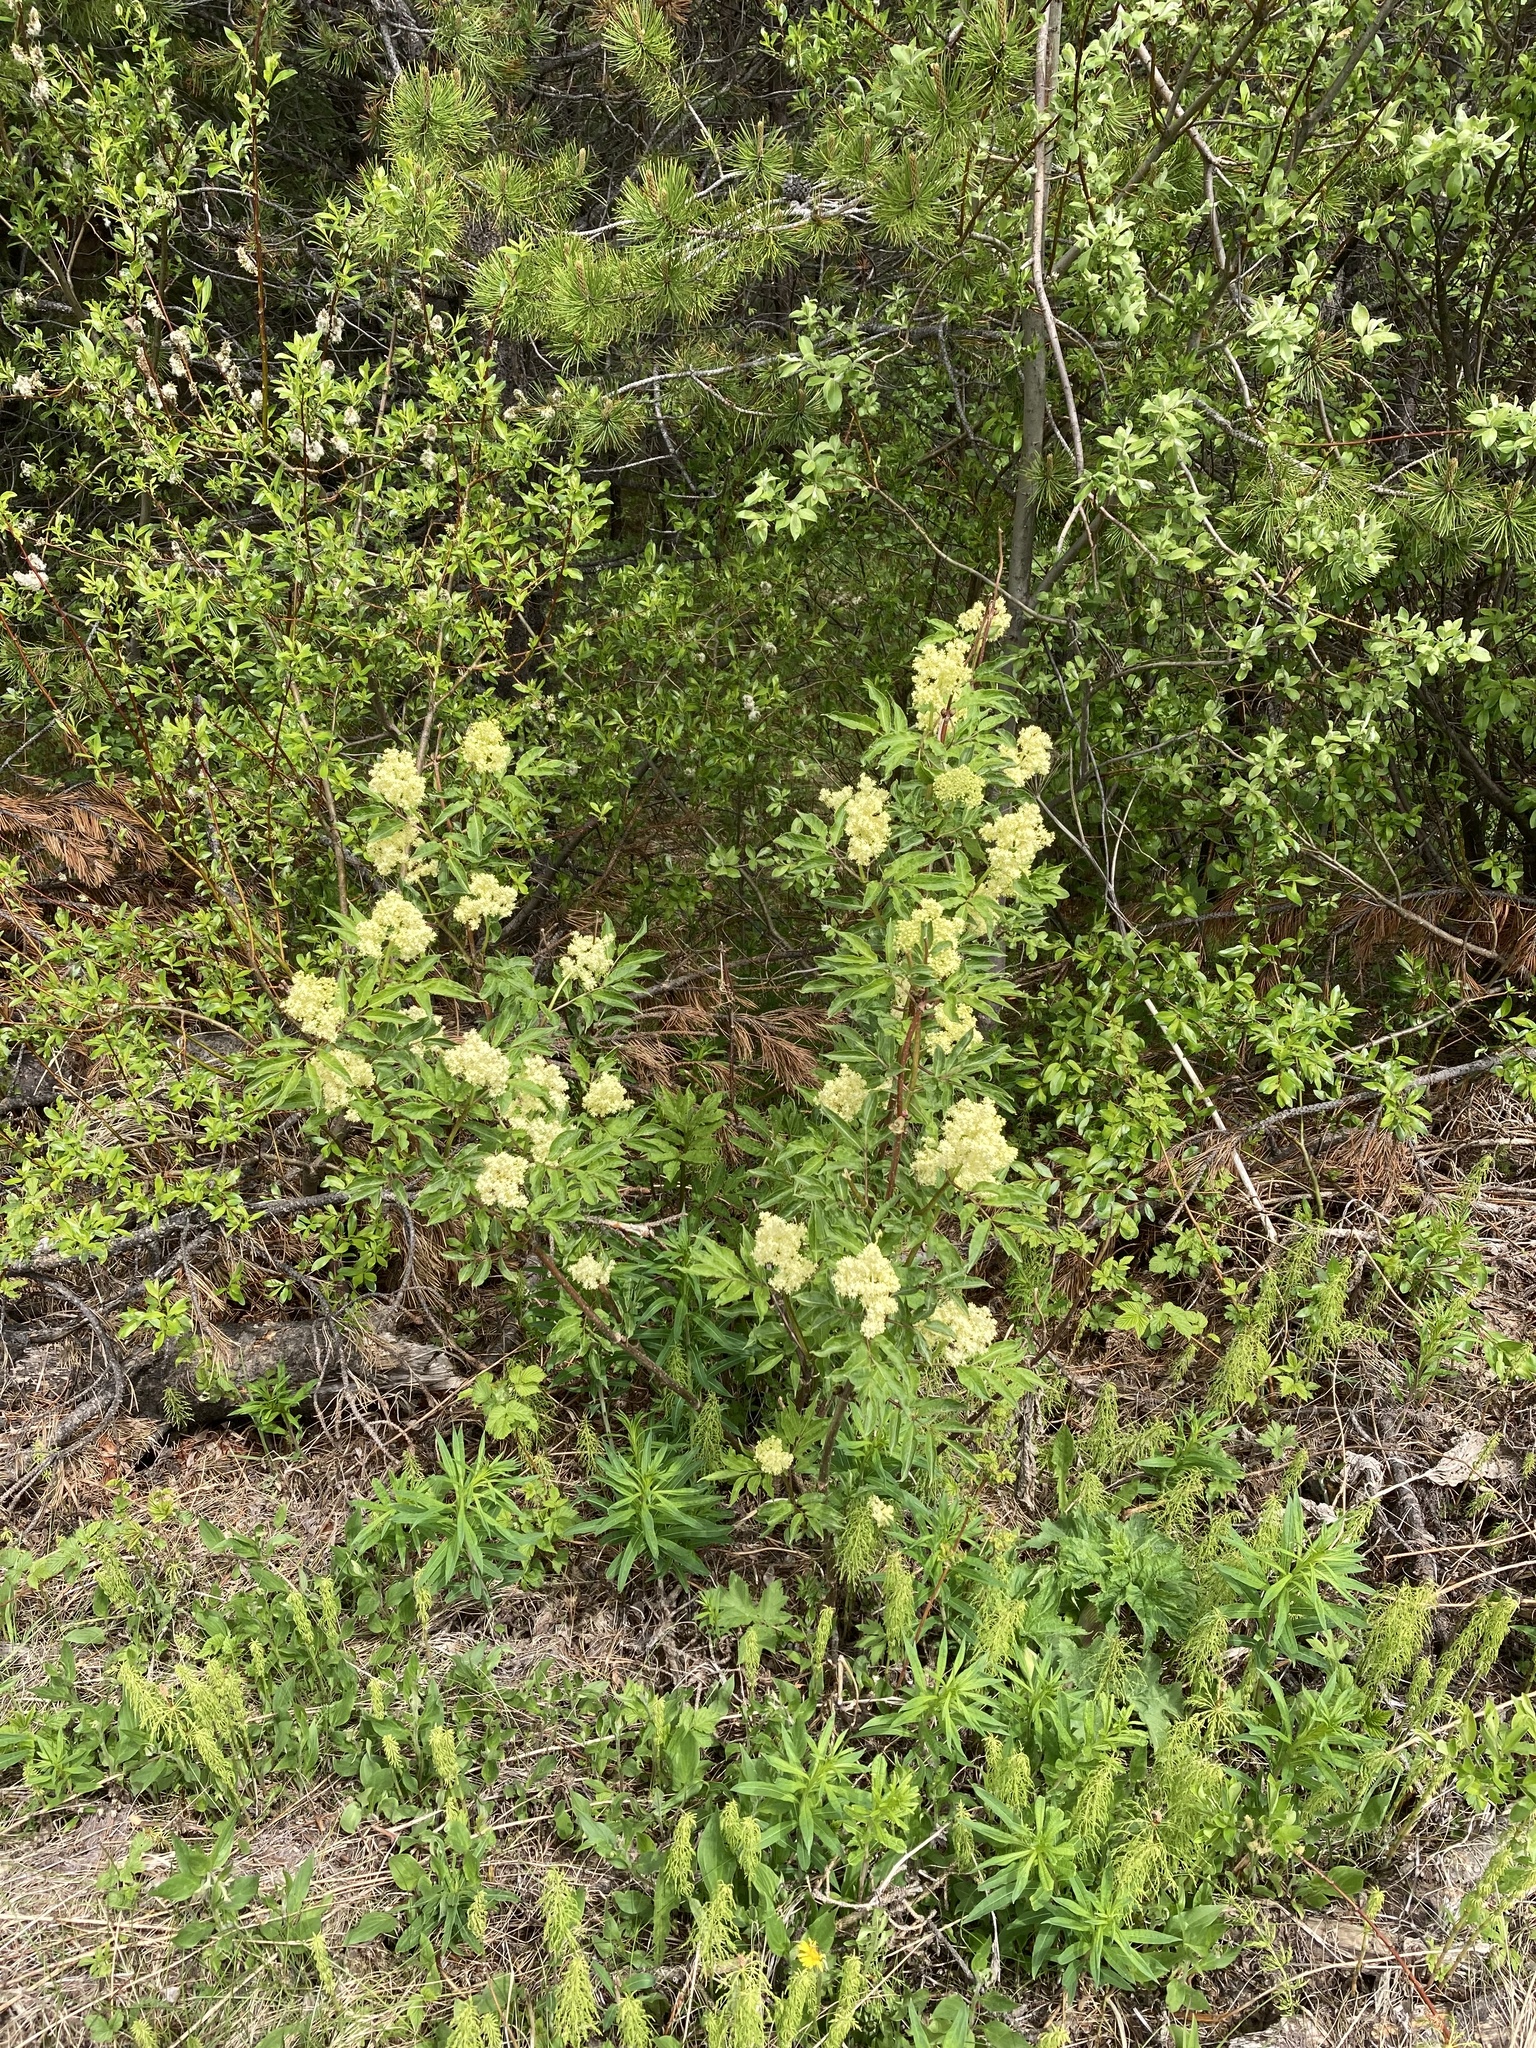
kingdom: Plantae
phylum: Tracheophyta
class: Magnoliopsida
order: Dipsacales
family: Viburnaceae
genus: Sambucus
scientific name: Sambucus racemosa
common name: Red-berried elder
